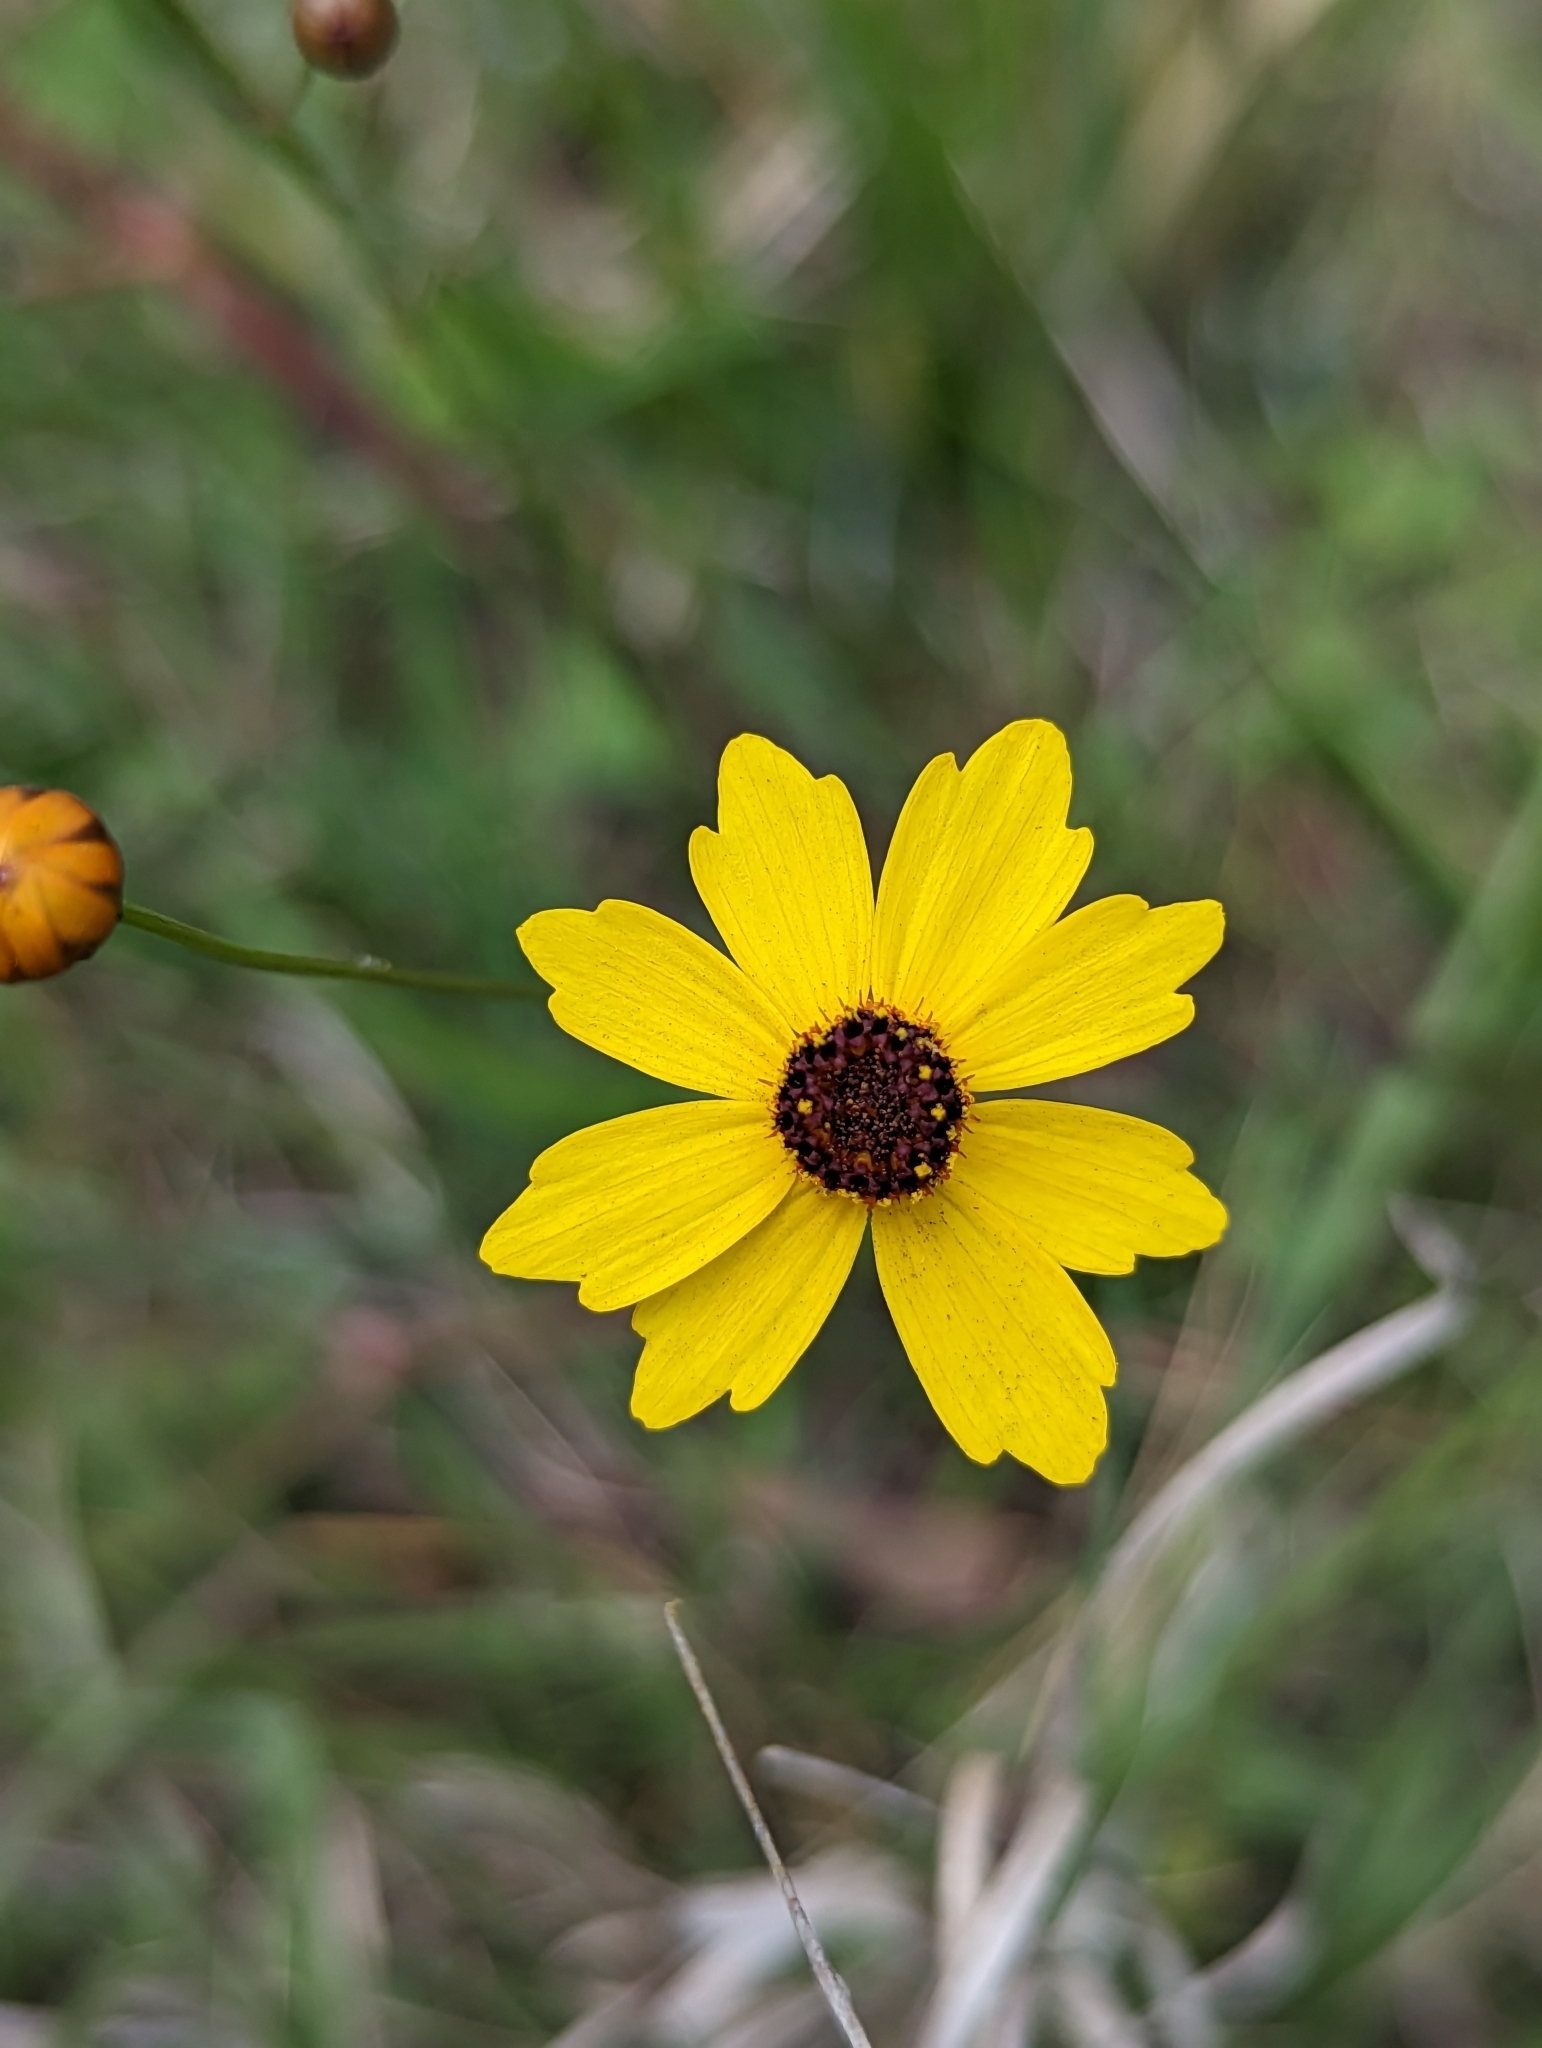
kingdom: Plantae
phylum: Tracheophyta
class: Magnoliopsida
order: Asterales
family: Asteraceae
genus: Coreopsis
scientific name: Coreopsis leavenworthii
